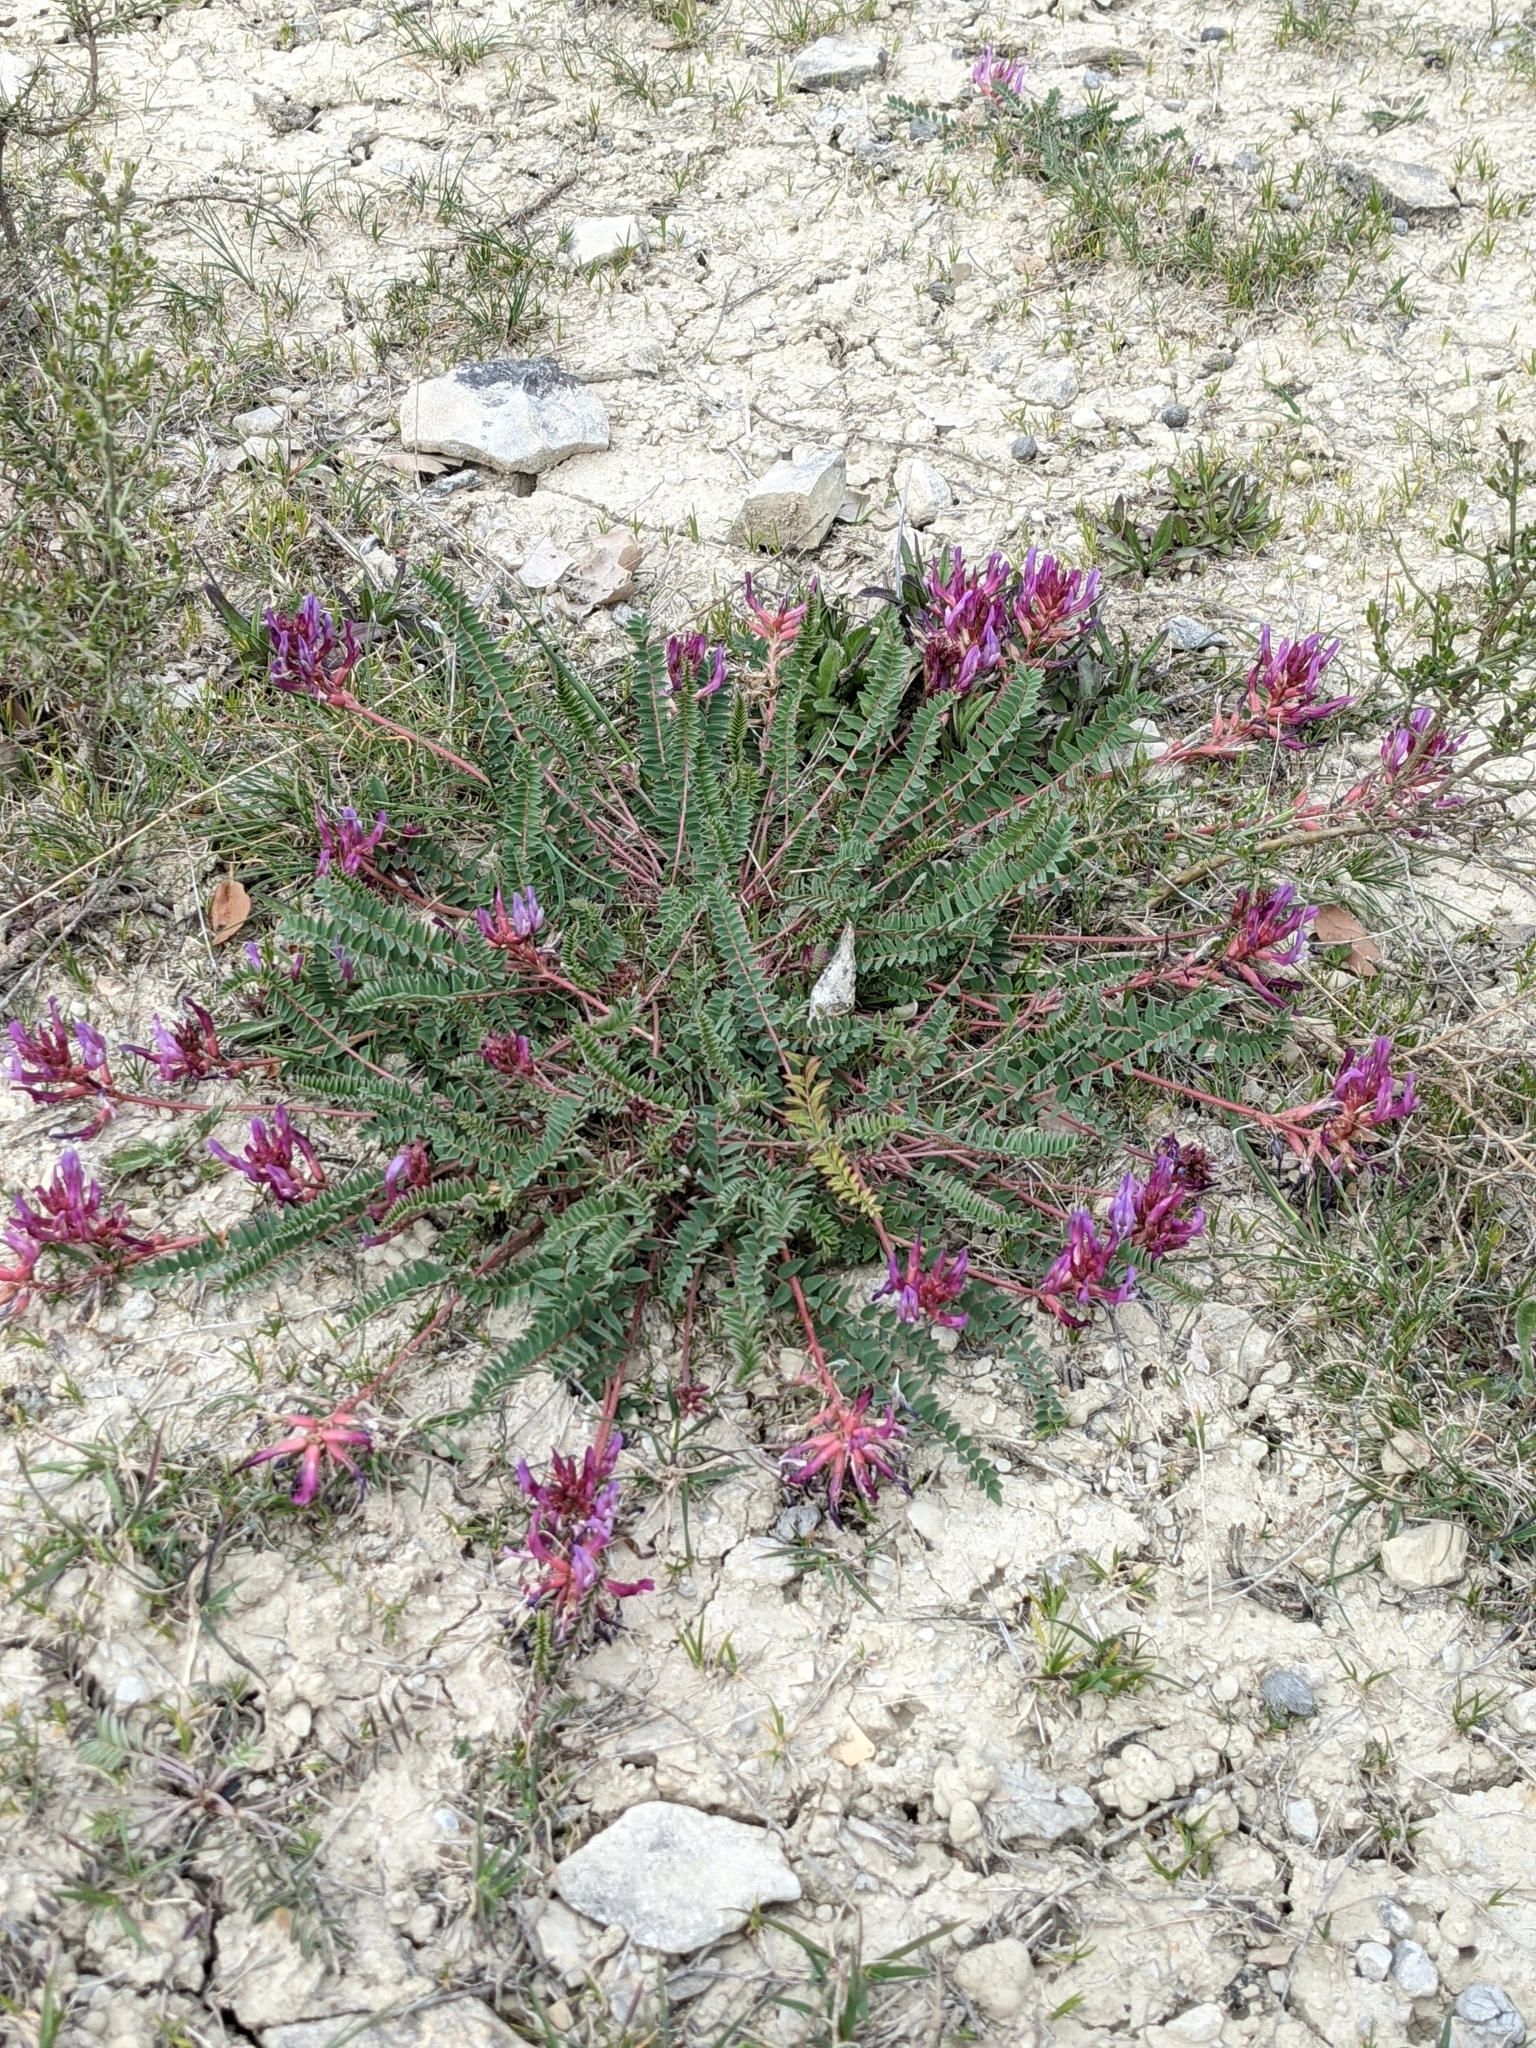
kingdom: Plantae
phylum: Tracheophyta
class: Magnoliopsida
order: Fabales
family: Fabaceae
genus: Astragalus
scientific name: Astragalus monspessulanus
